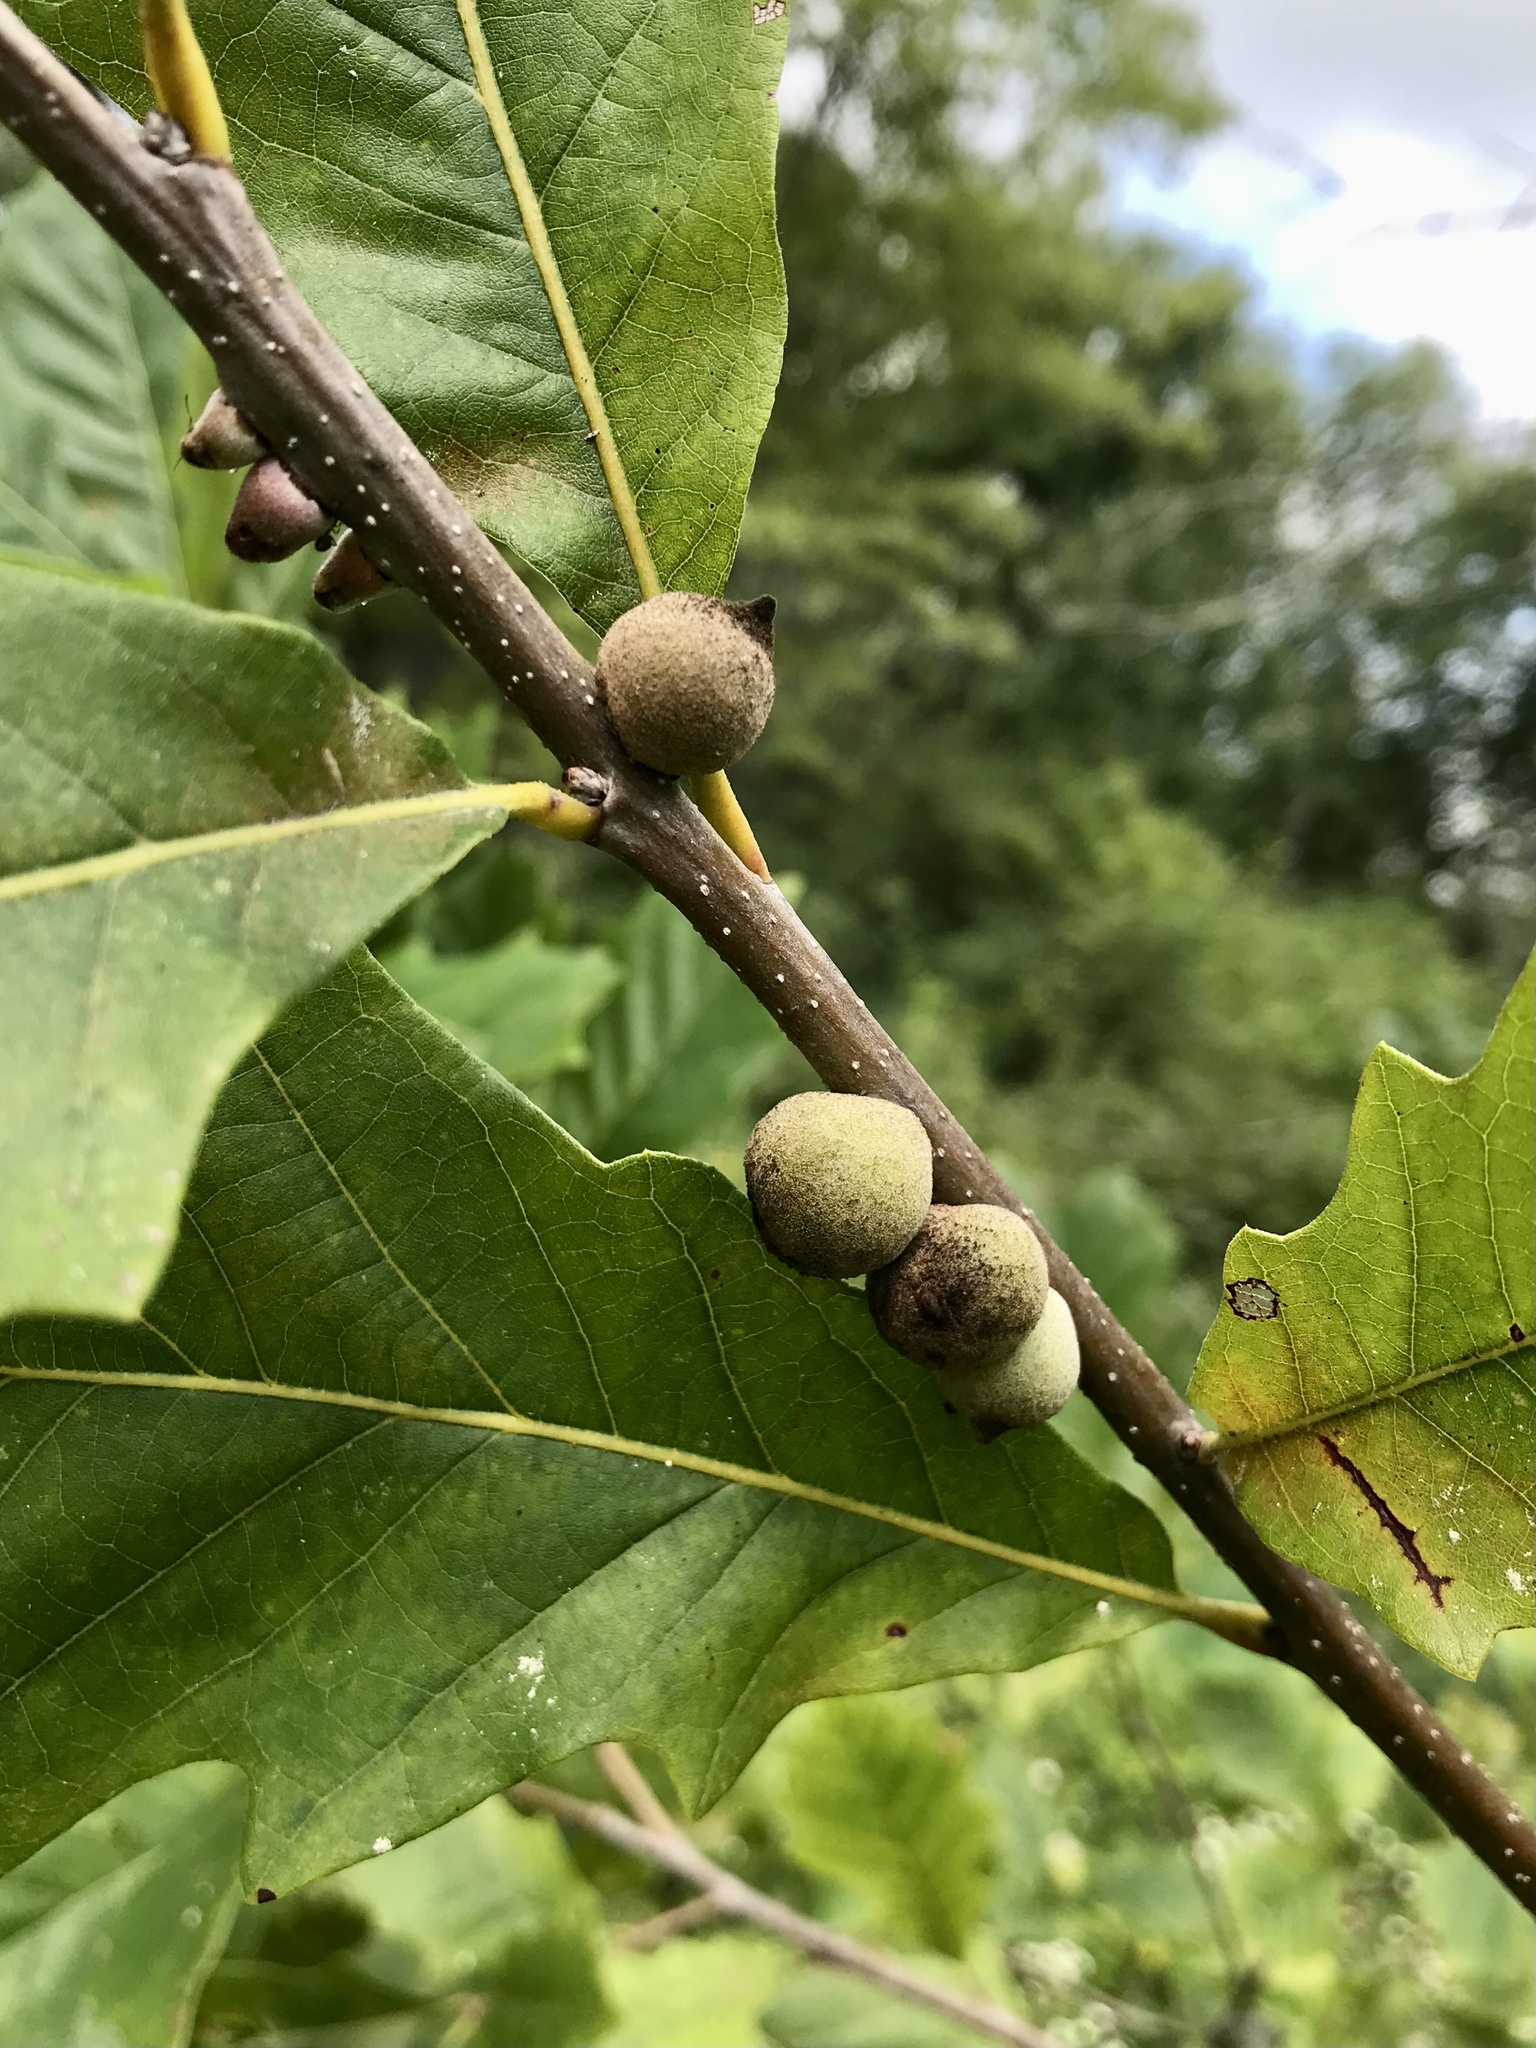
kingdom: Animalia
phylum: Arthropoda
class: Insecta
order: Hymenoptera
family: Cynipidae
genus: Disholcaspis
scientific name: Disholcaspis
